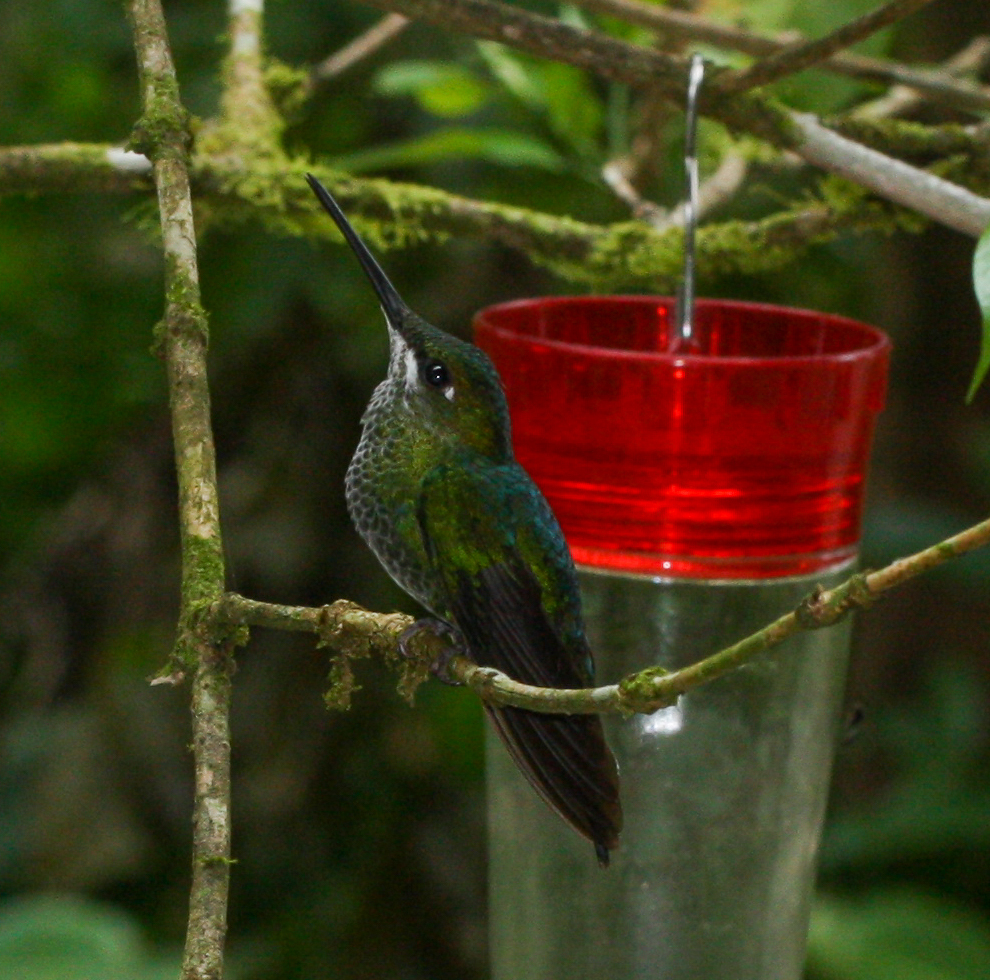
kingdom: Animalia
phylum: Chordata
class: Aves
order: Apodiformes
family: Trochilidae
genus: Heliodoxa
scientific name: Heliodoxa jacula
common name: Green-crowned brilliant
